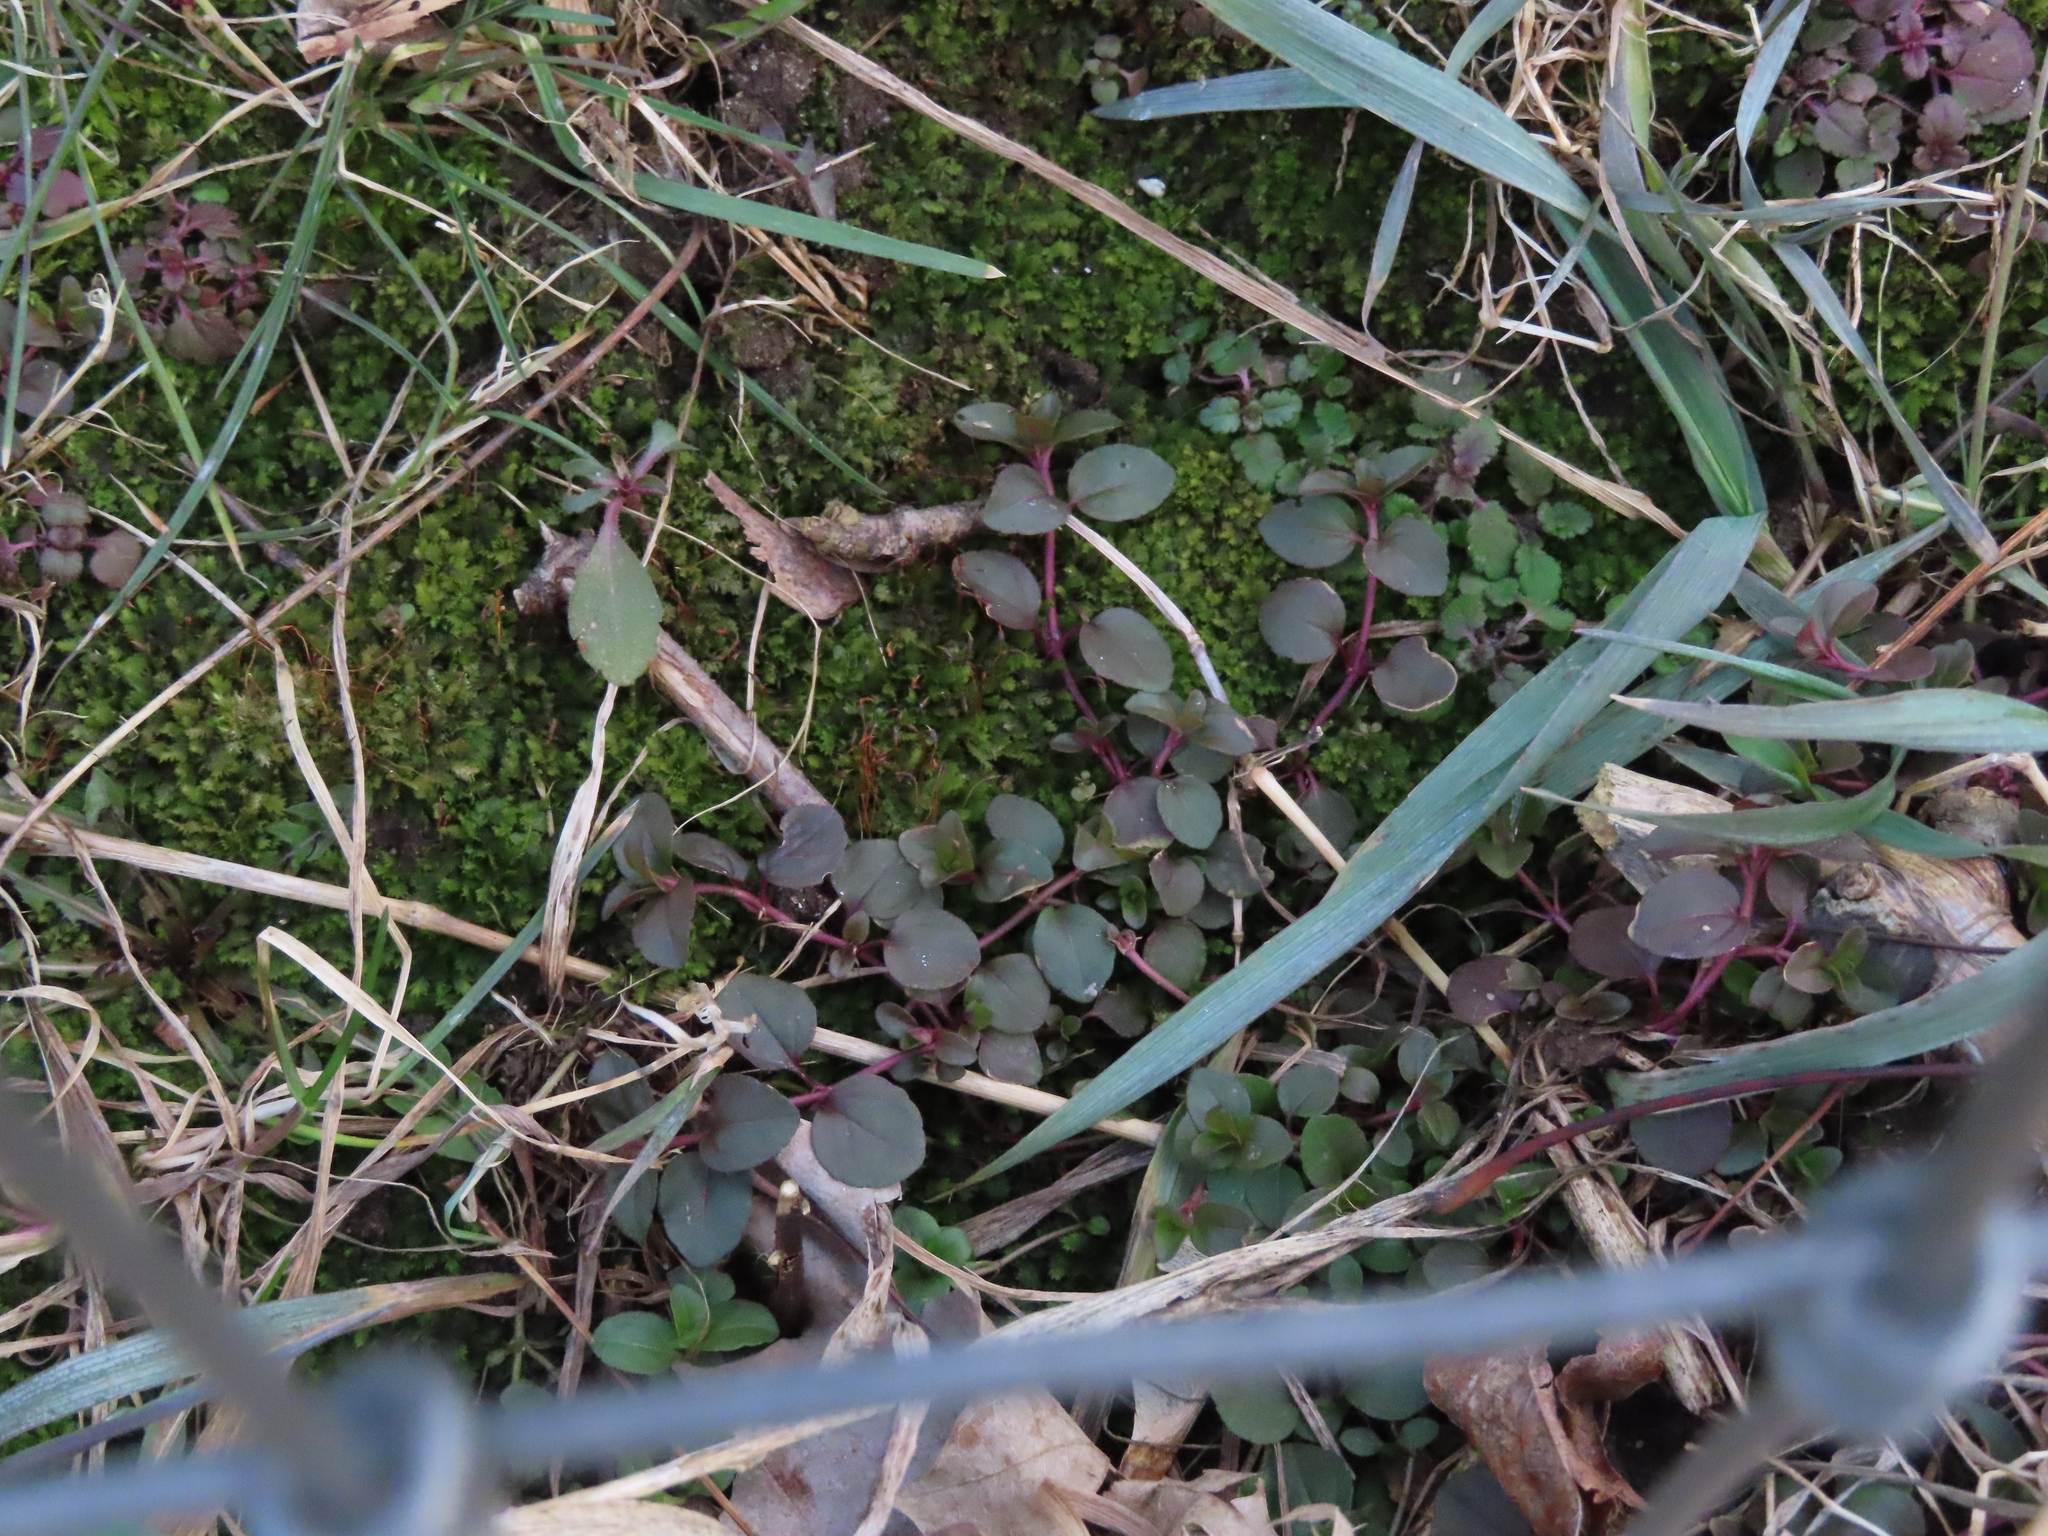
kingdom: Plantae
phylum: Tracheophyta
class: Magnoliopsida
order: Ericales
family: Primulaceae
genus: Lysimachia
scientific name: Lysimachia nummularia
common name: Moneywort
